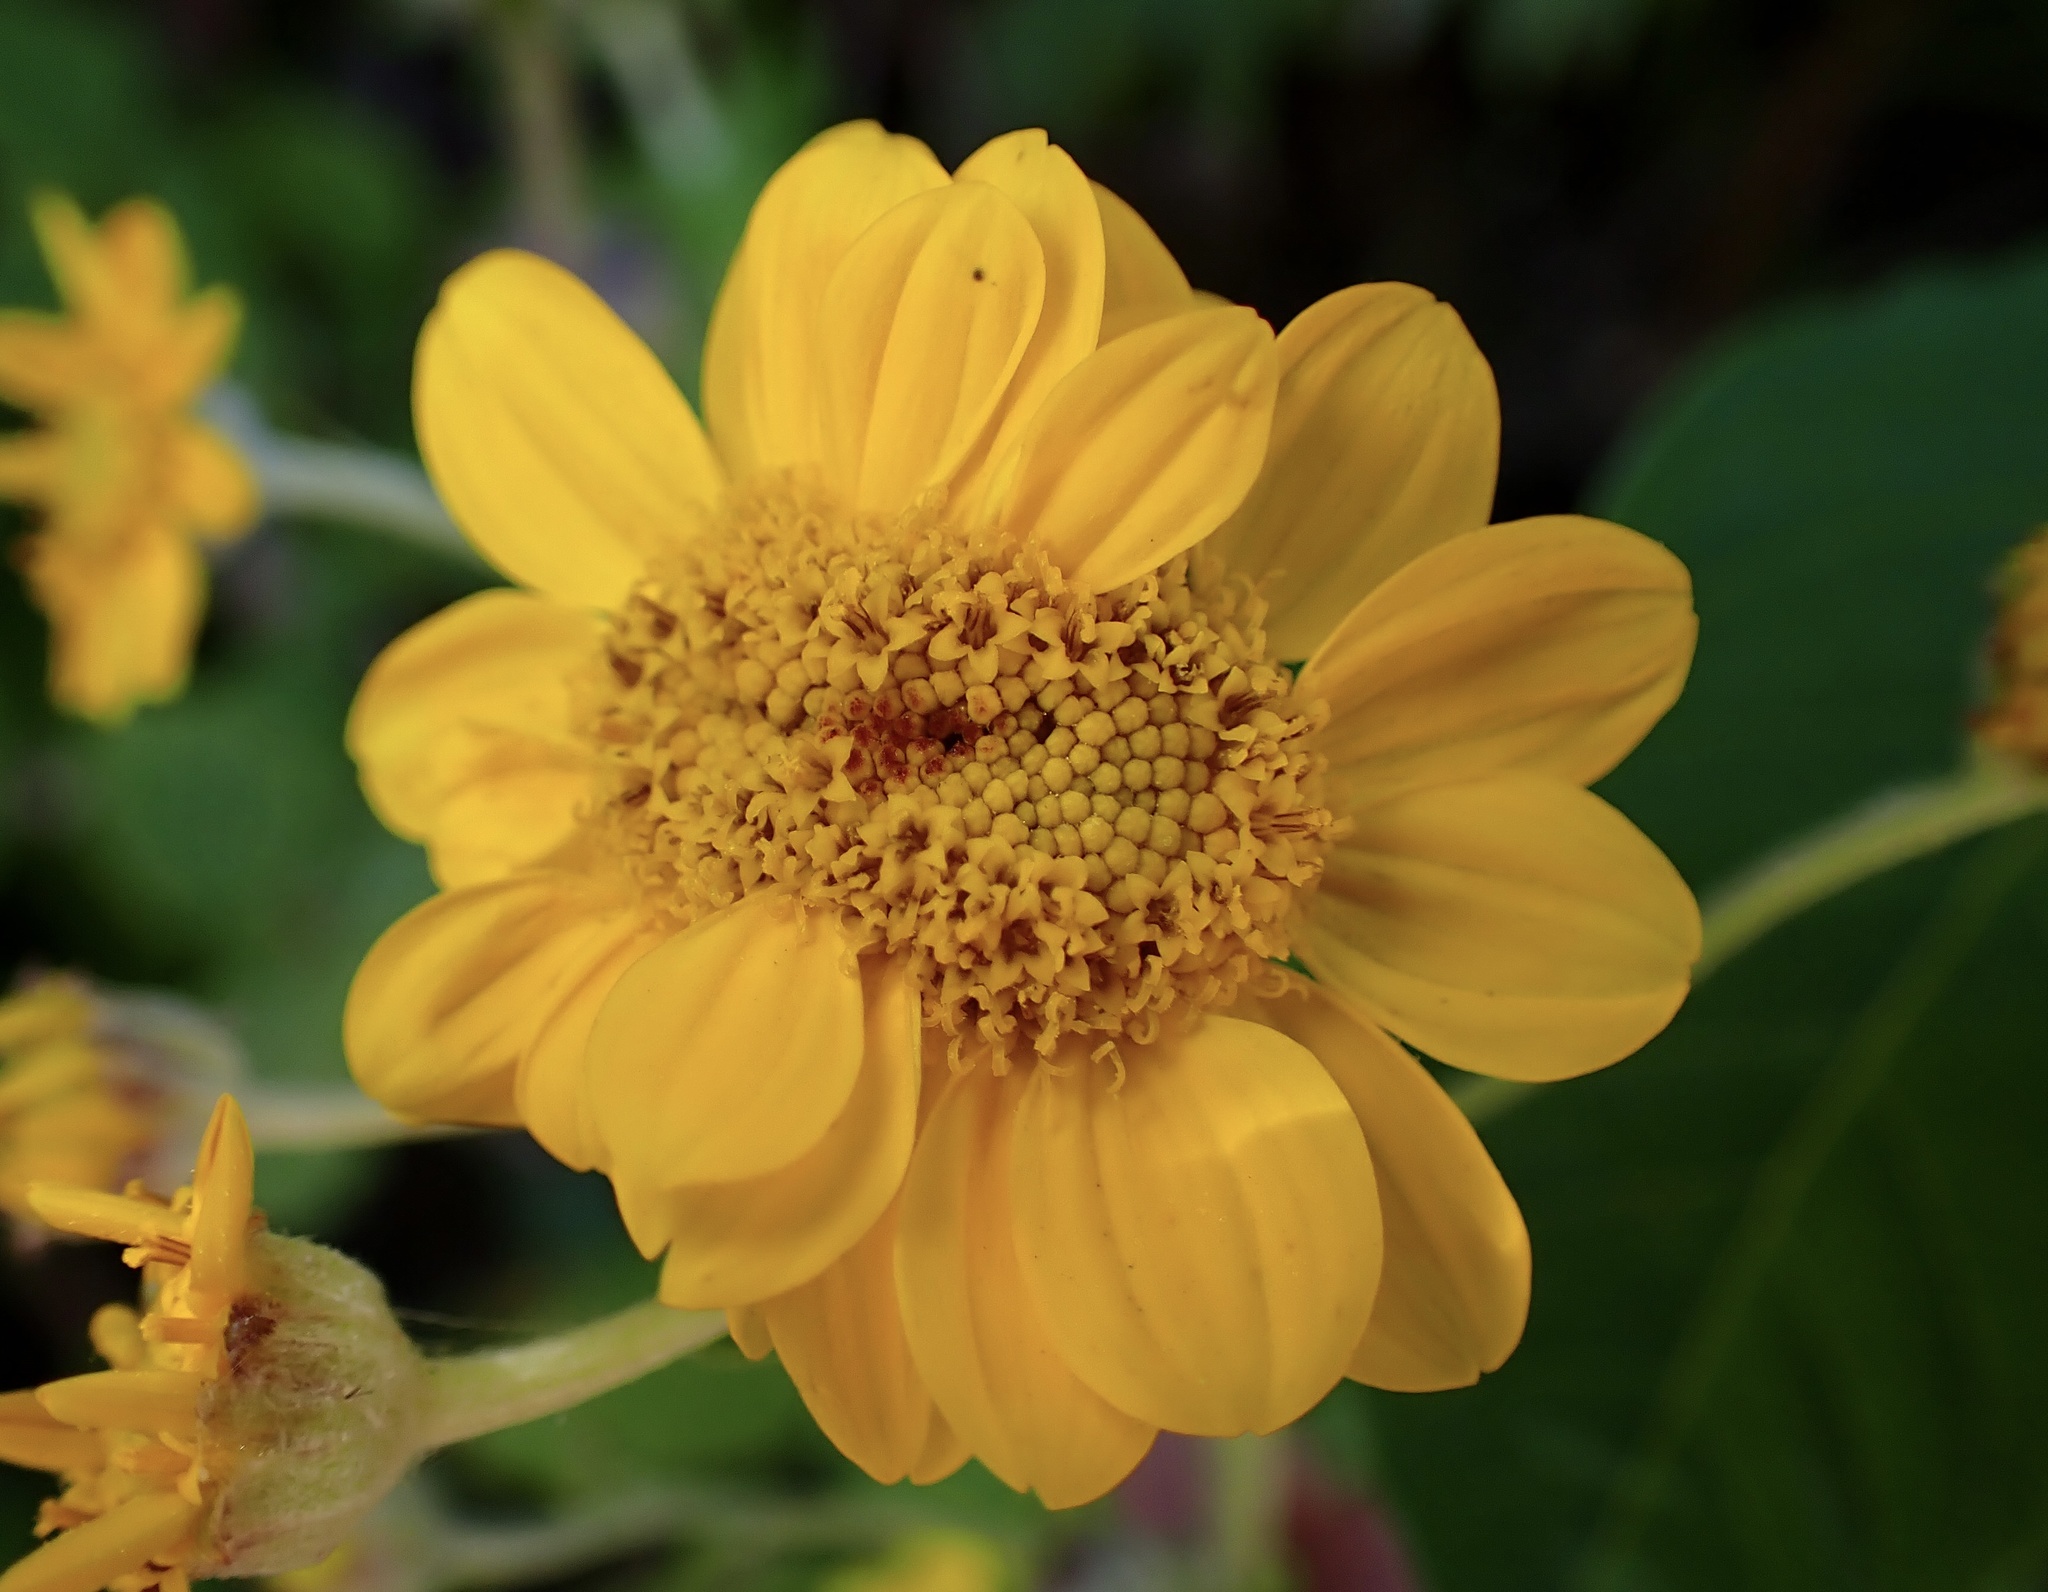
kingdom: Plantae
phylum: Tracheophyta
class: Magnoliopsida
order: Asterales
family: Asteraceae
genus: Eriophyllum
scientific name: Eriophyllum lanatum
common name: Common woolly-sunflower
